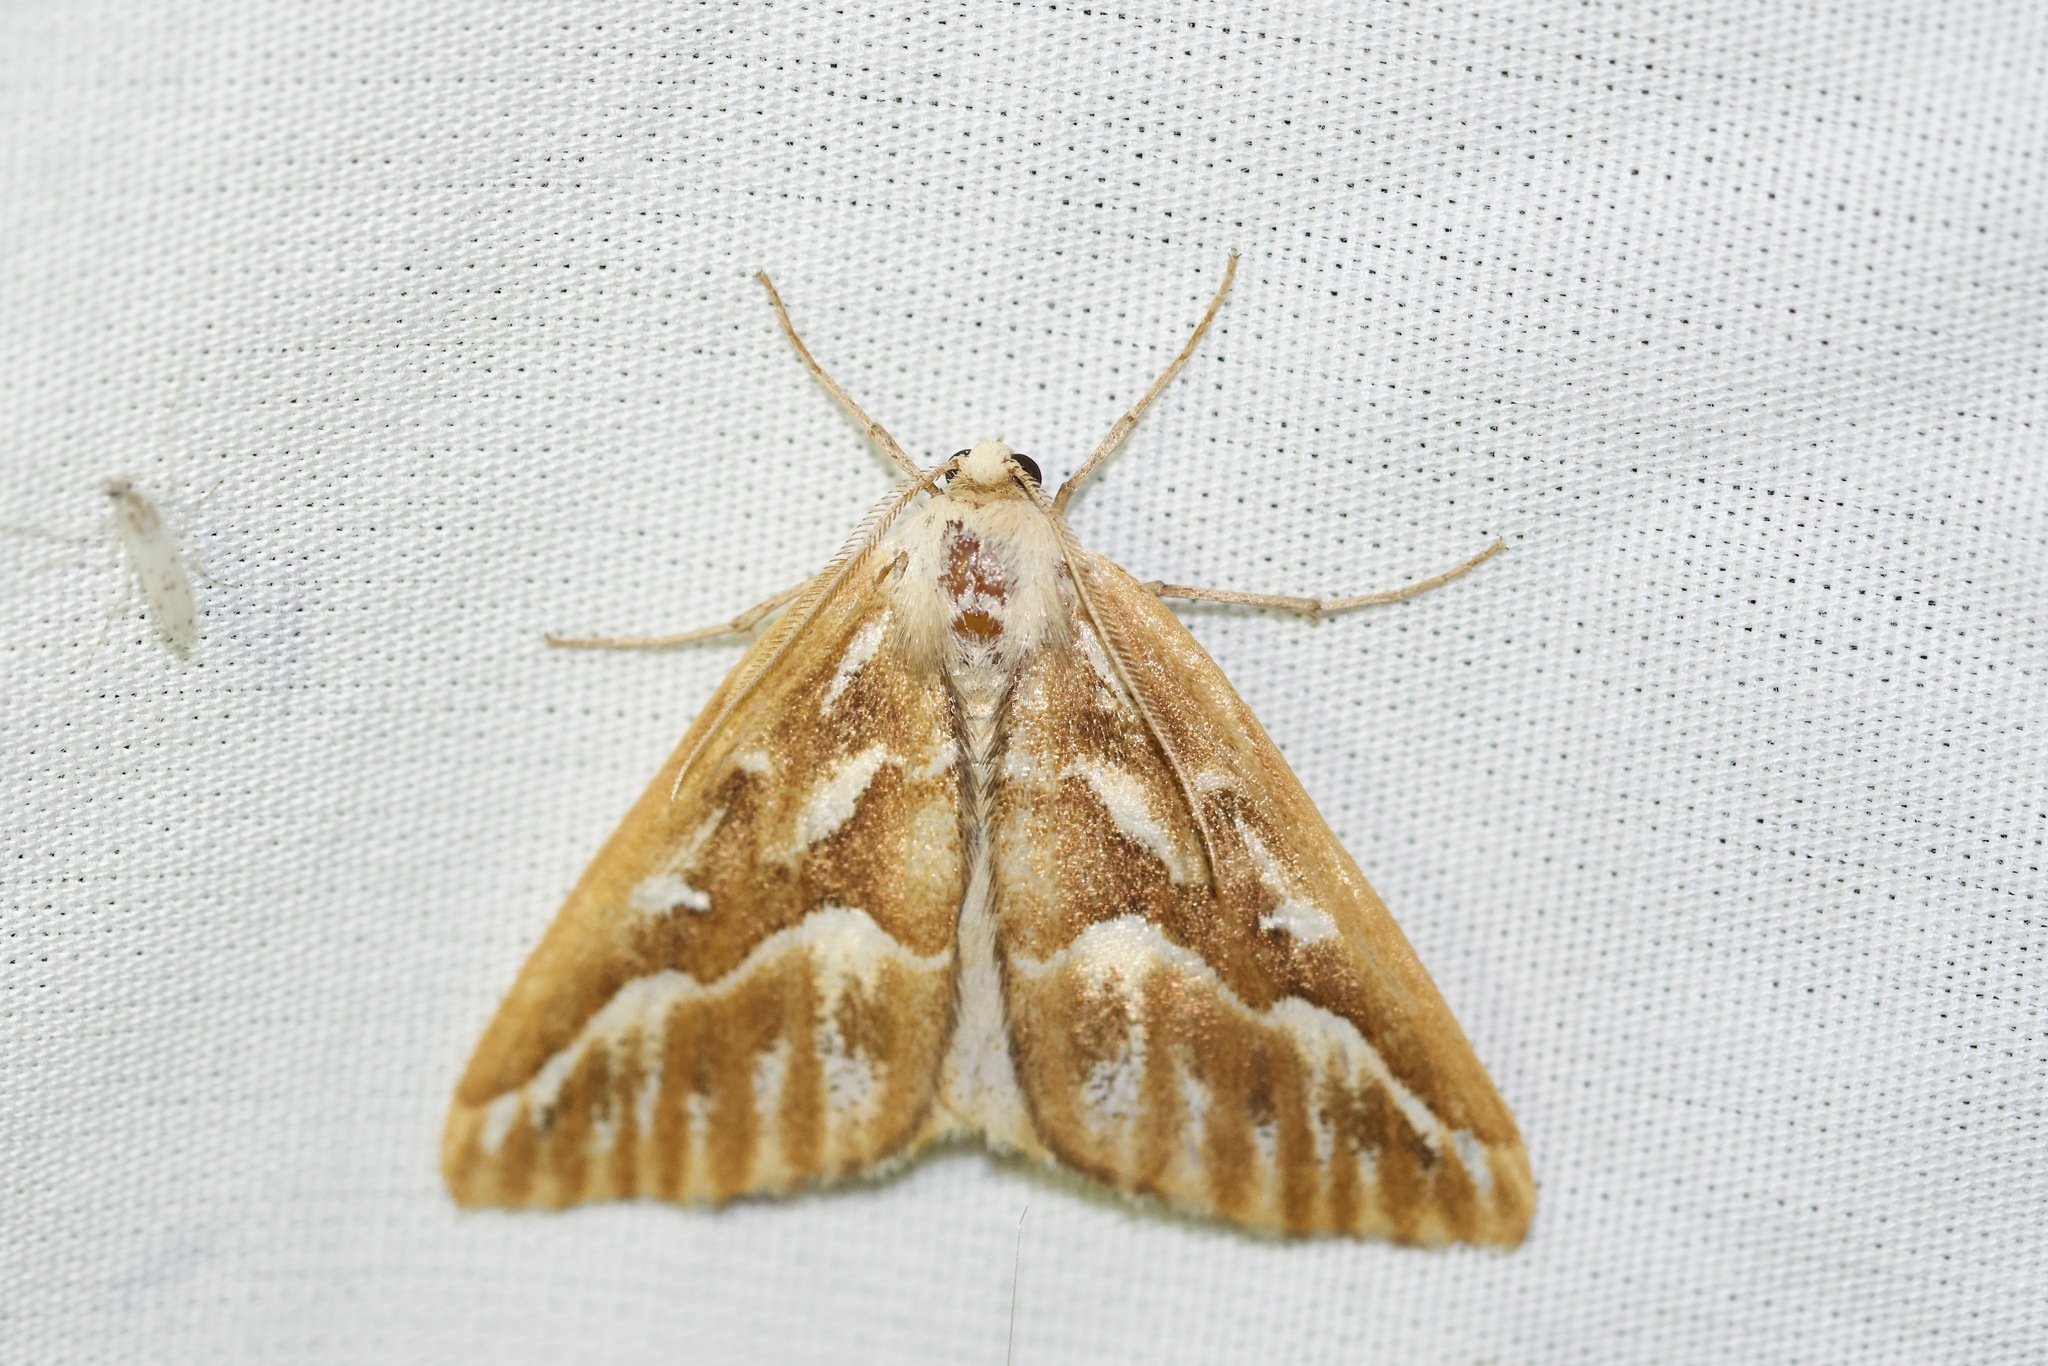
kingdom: Animalia
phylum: Arthropoda
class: Insecta
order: Lepidoptera
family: Geometridae
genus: Caripeta
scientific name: Caripeta piniata
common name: Northern pine looper moth
